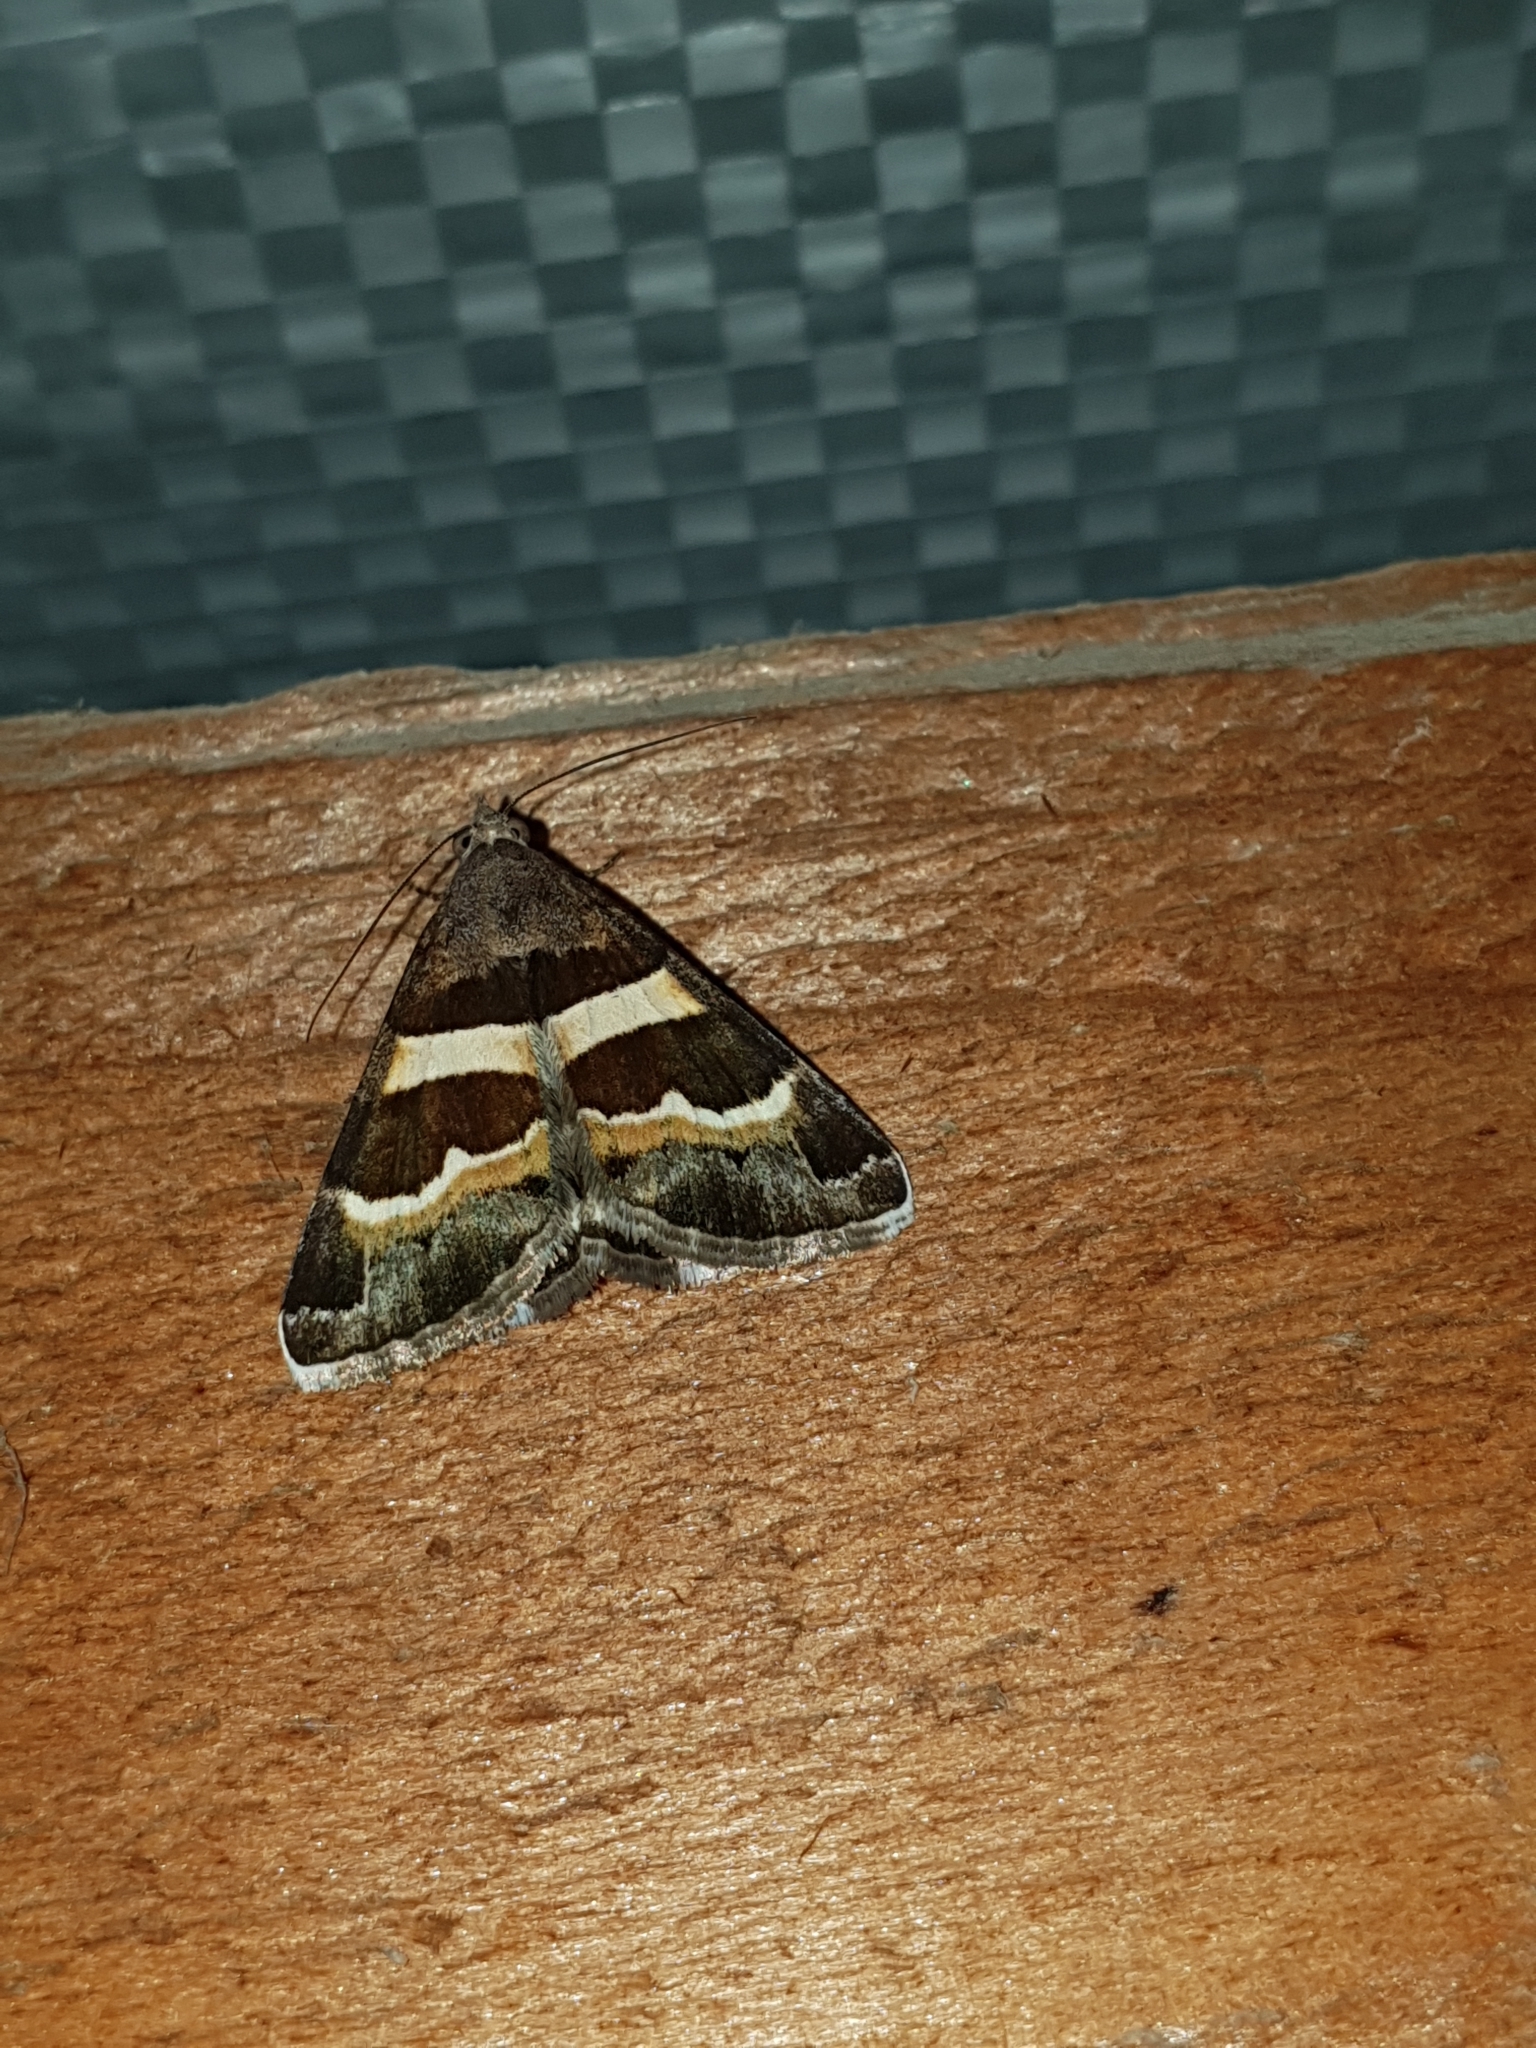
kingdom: Animalia
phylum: Arthropoda
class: Insecta
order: Lepidoptera
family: Erebidae
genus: Grammodes
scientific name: Grammodes stolida
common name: Geometrician
